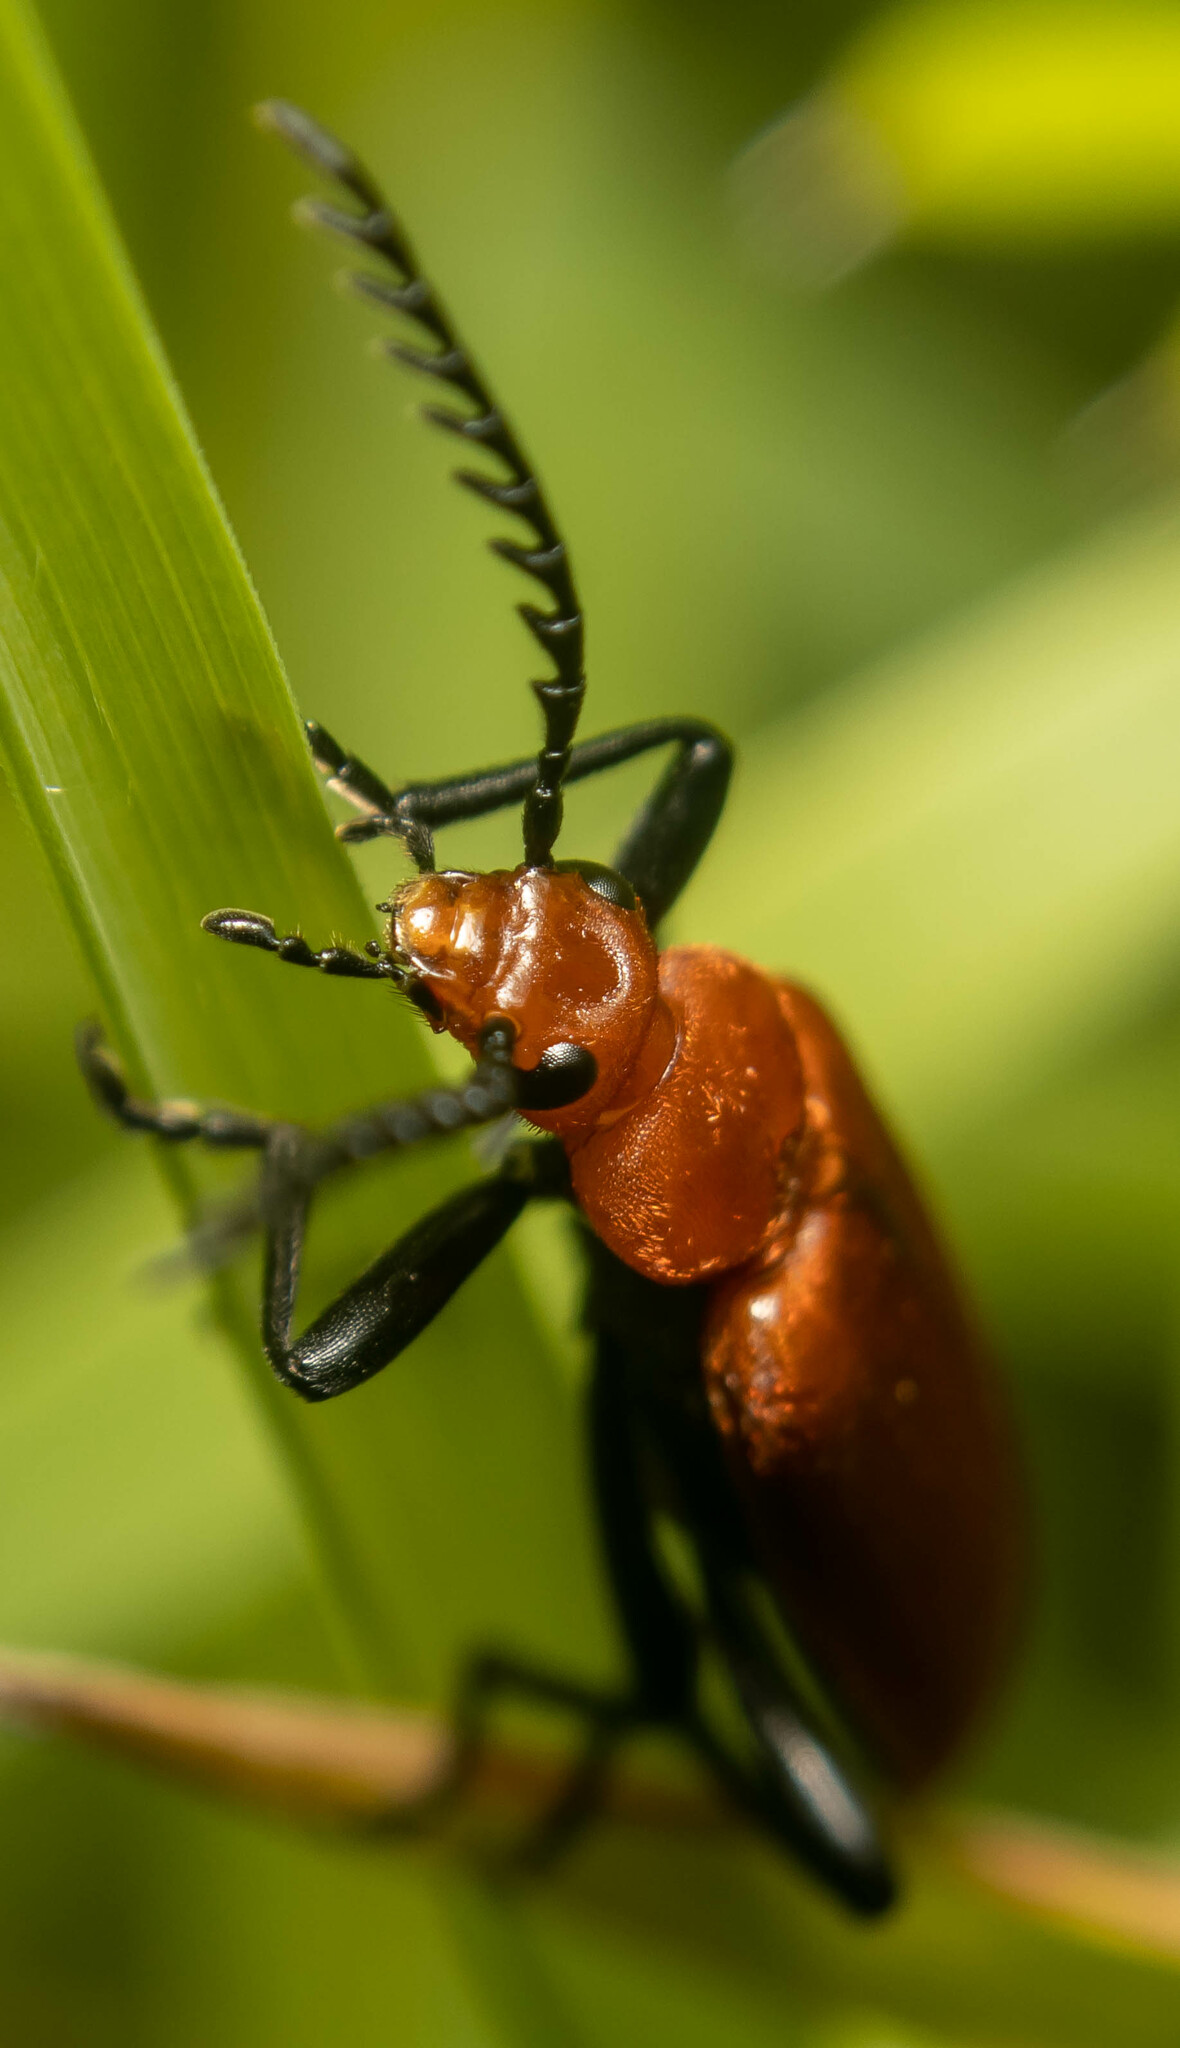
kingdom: Animalia
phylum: Arthropoda
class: Insecta
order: Coleoptera
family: Pyrochroidae
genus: Pyrochroa
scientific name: Pyrochroa serraticornis
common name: Red-headed cardinal beetle
